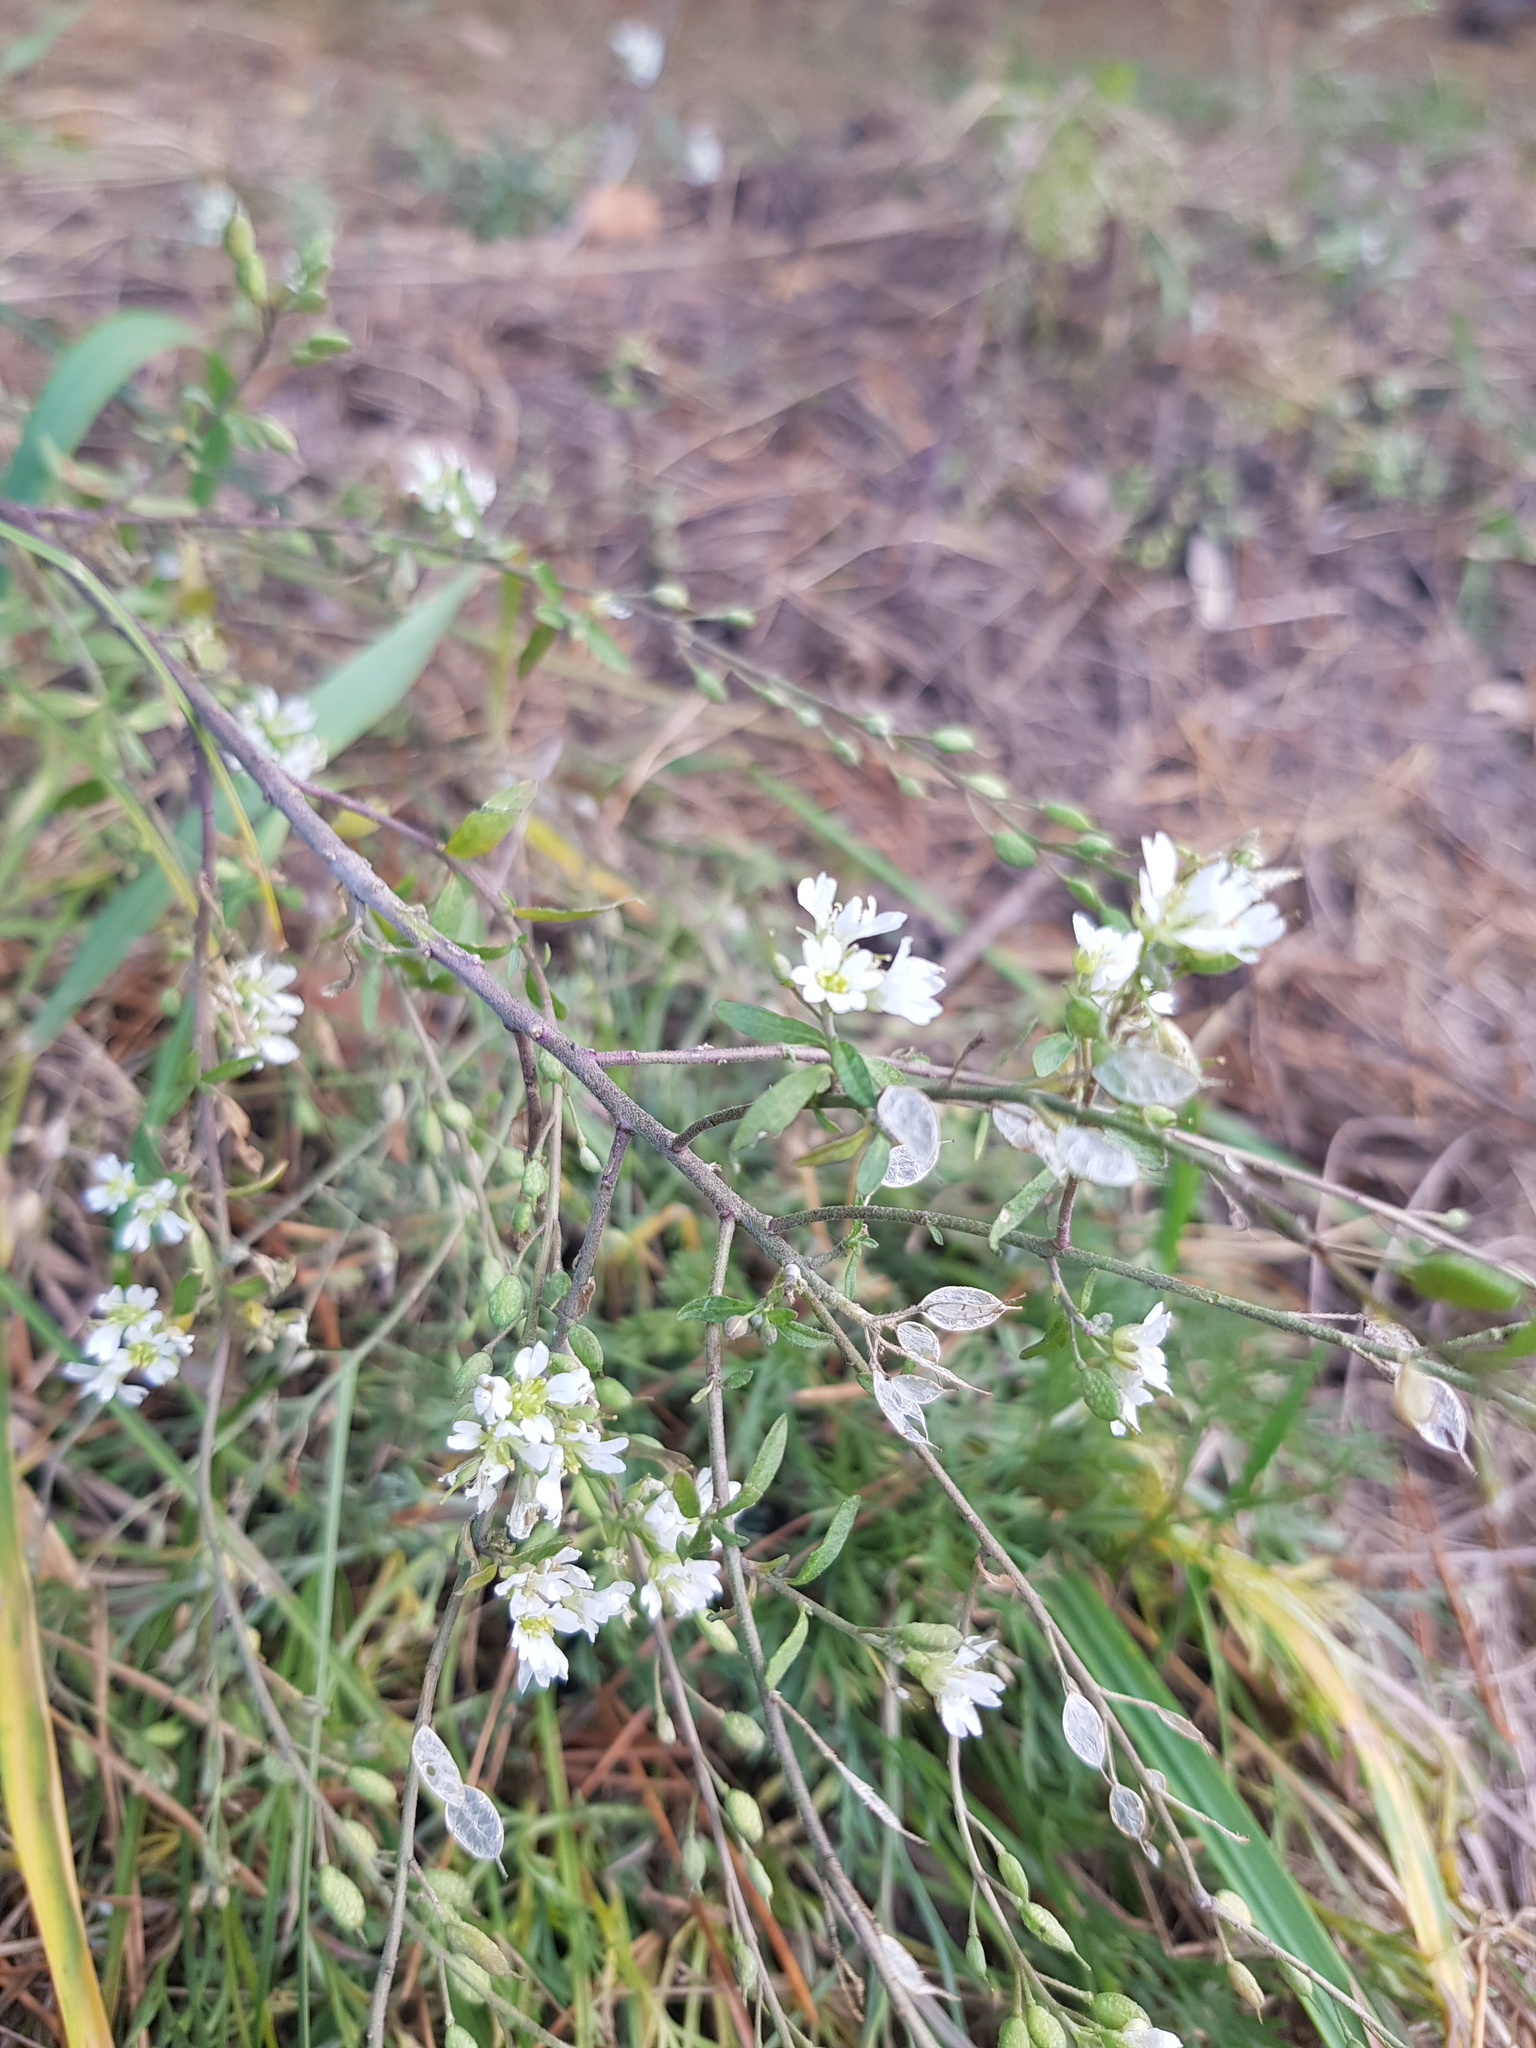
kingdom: Plantae
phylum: Tracheophyta
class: Magnoliopsida
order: Brassicales
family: Brassicaceae
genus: Berteroa
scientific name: Berteroa incana
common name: Hoary alison
